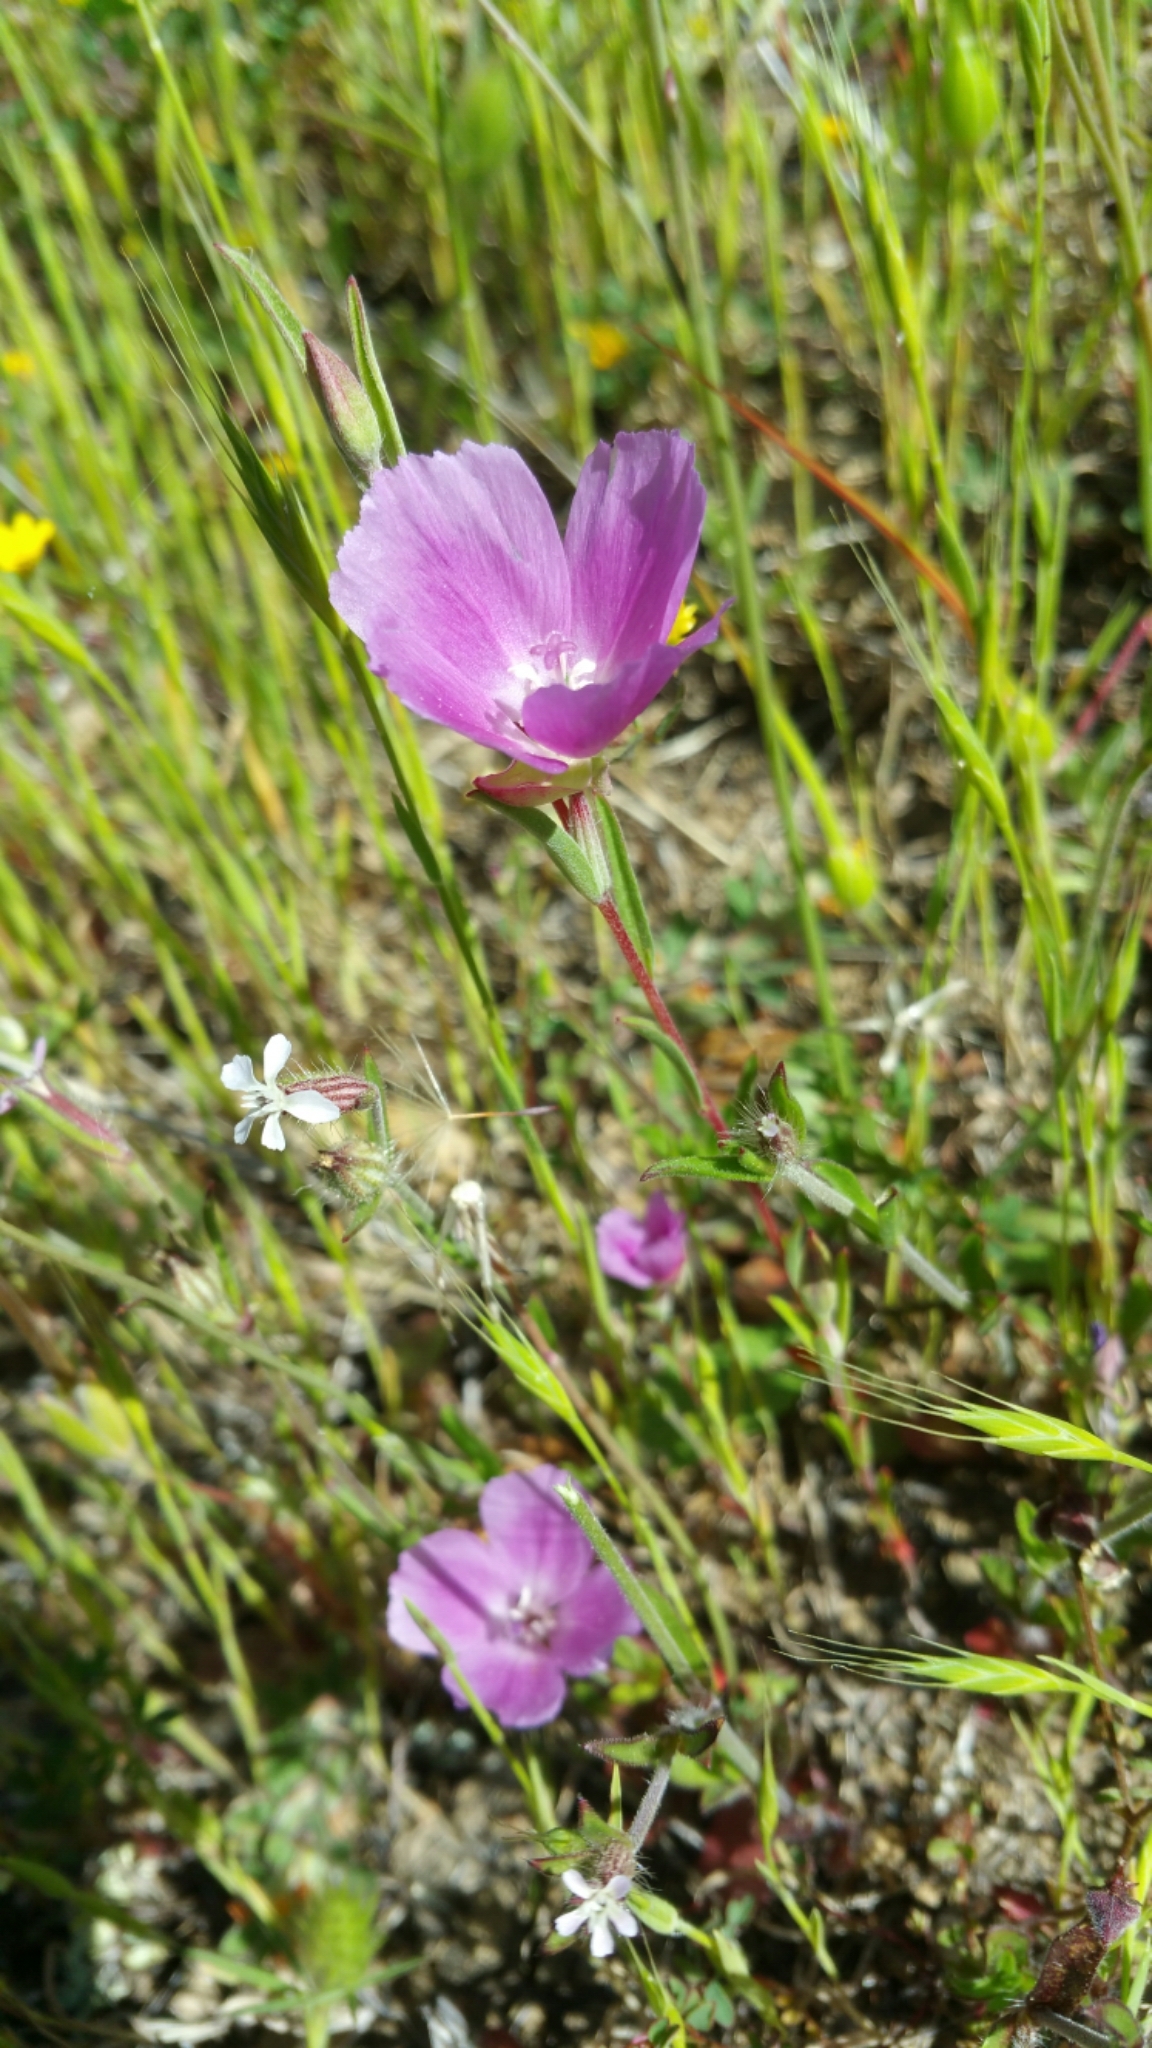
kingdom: Plantae
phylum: Tracheophyta
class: Magnoliopsida
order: Myrtales
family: Onagraceae
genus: Clarkia
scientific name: Clarkia purpurea
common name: Purple clarkia
